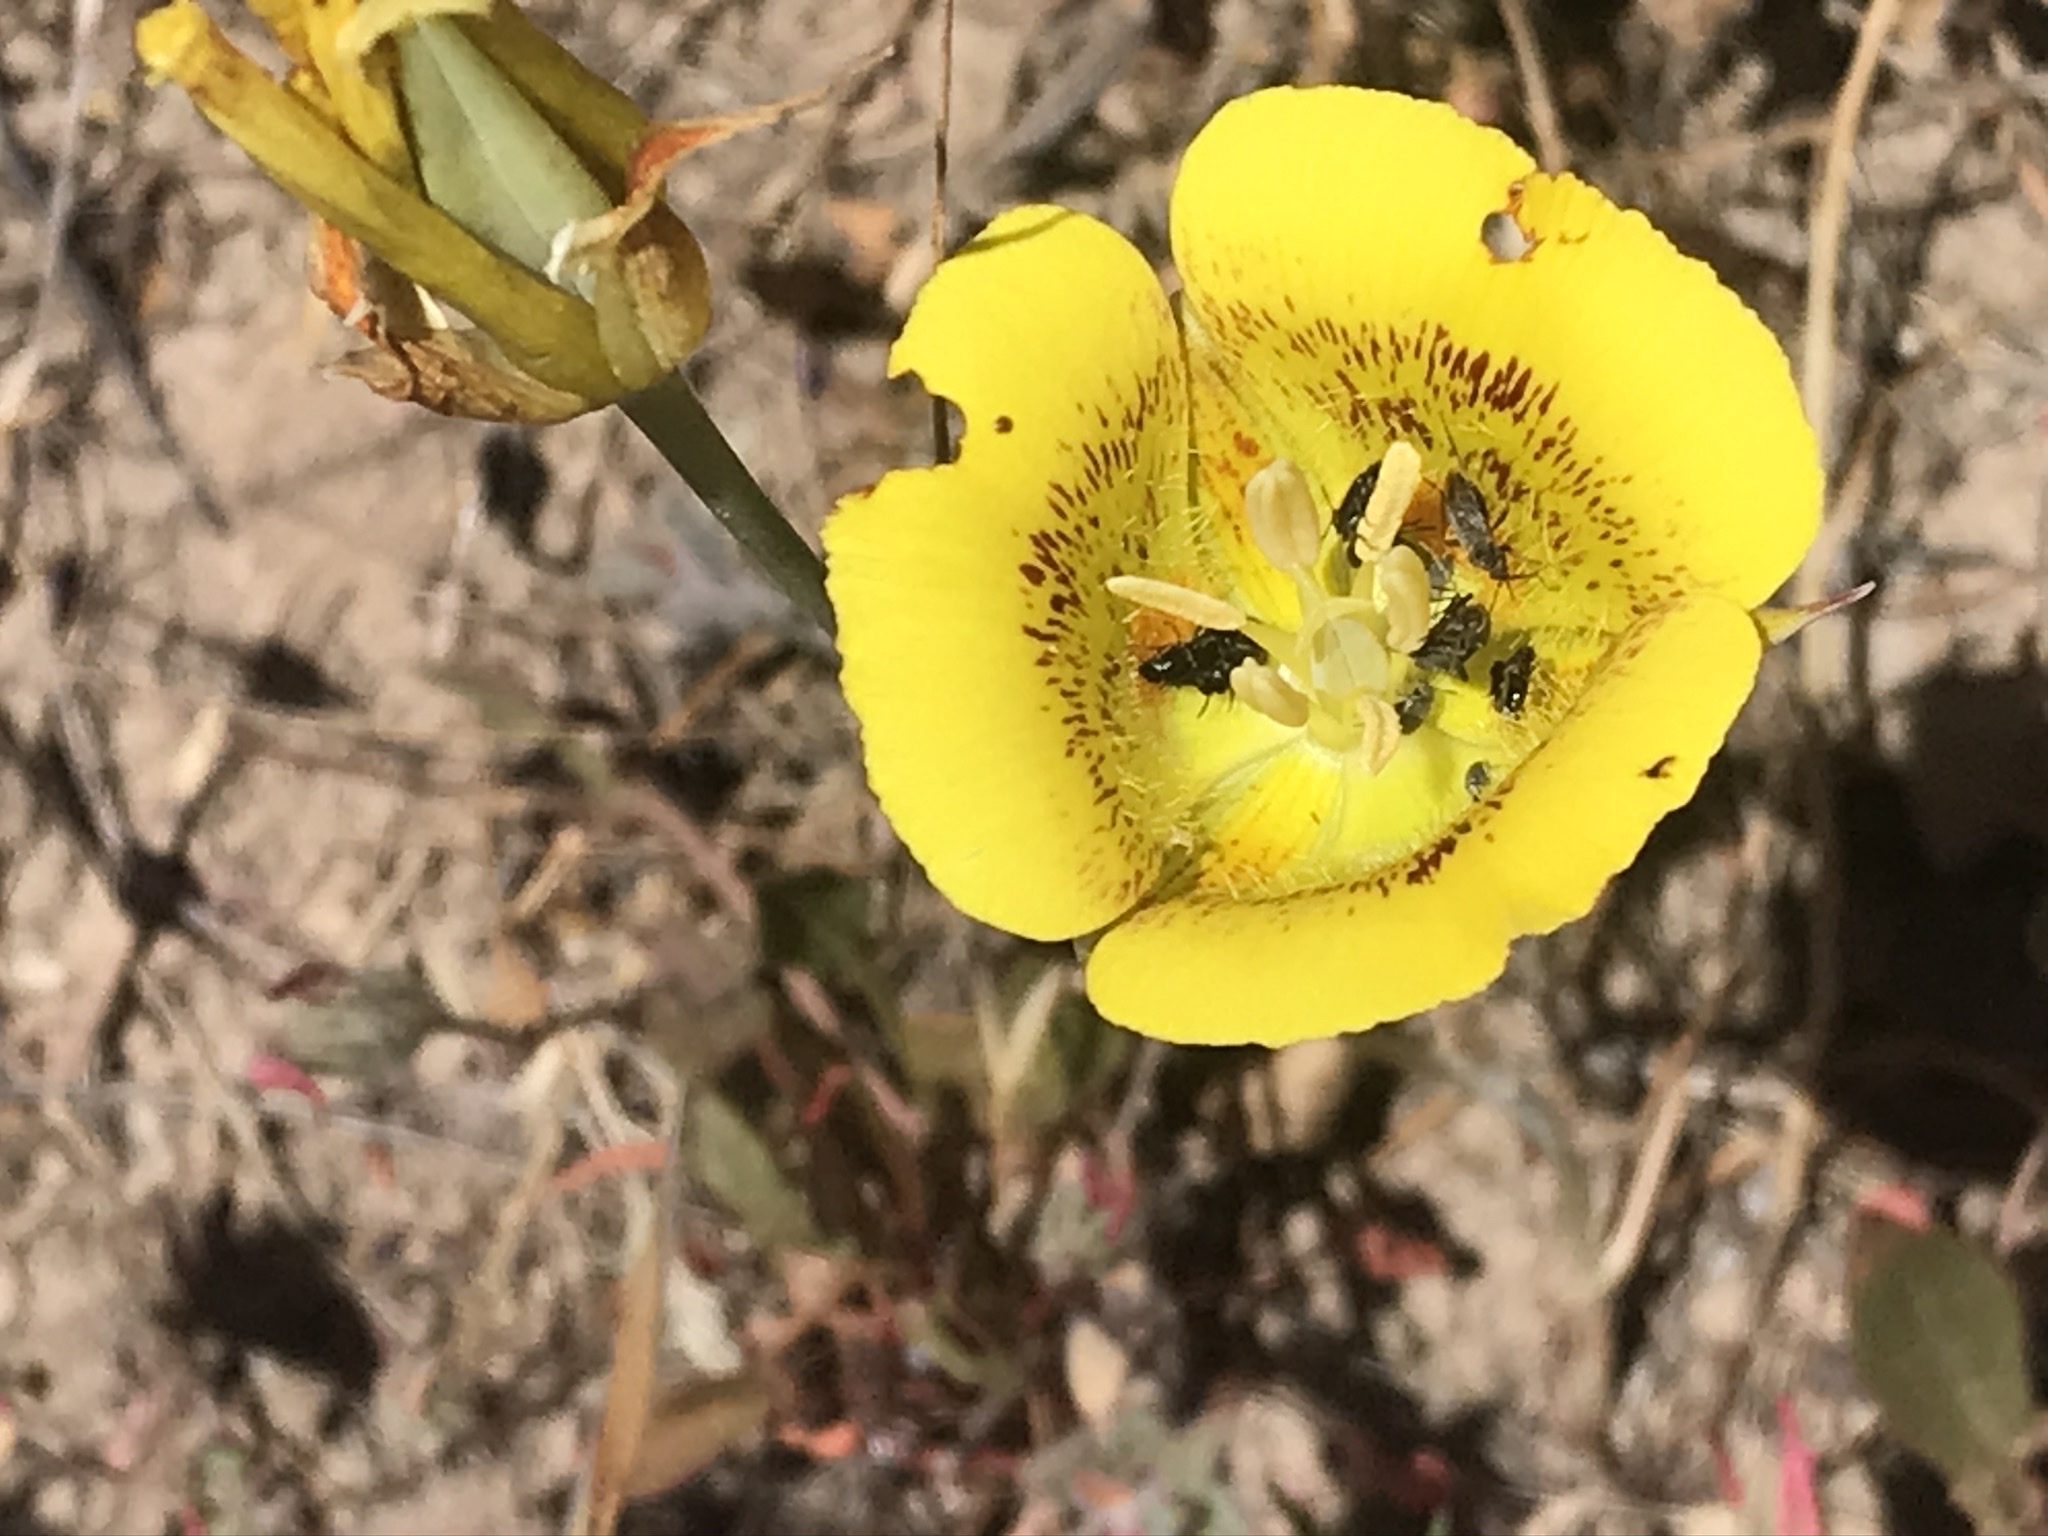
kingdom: Plantae
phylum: Tracheophyta
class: Liliopsida
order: Liliales
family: Liliaceae
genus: Calochortus
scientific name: Calochortus luteus
